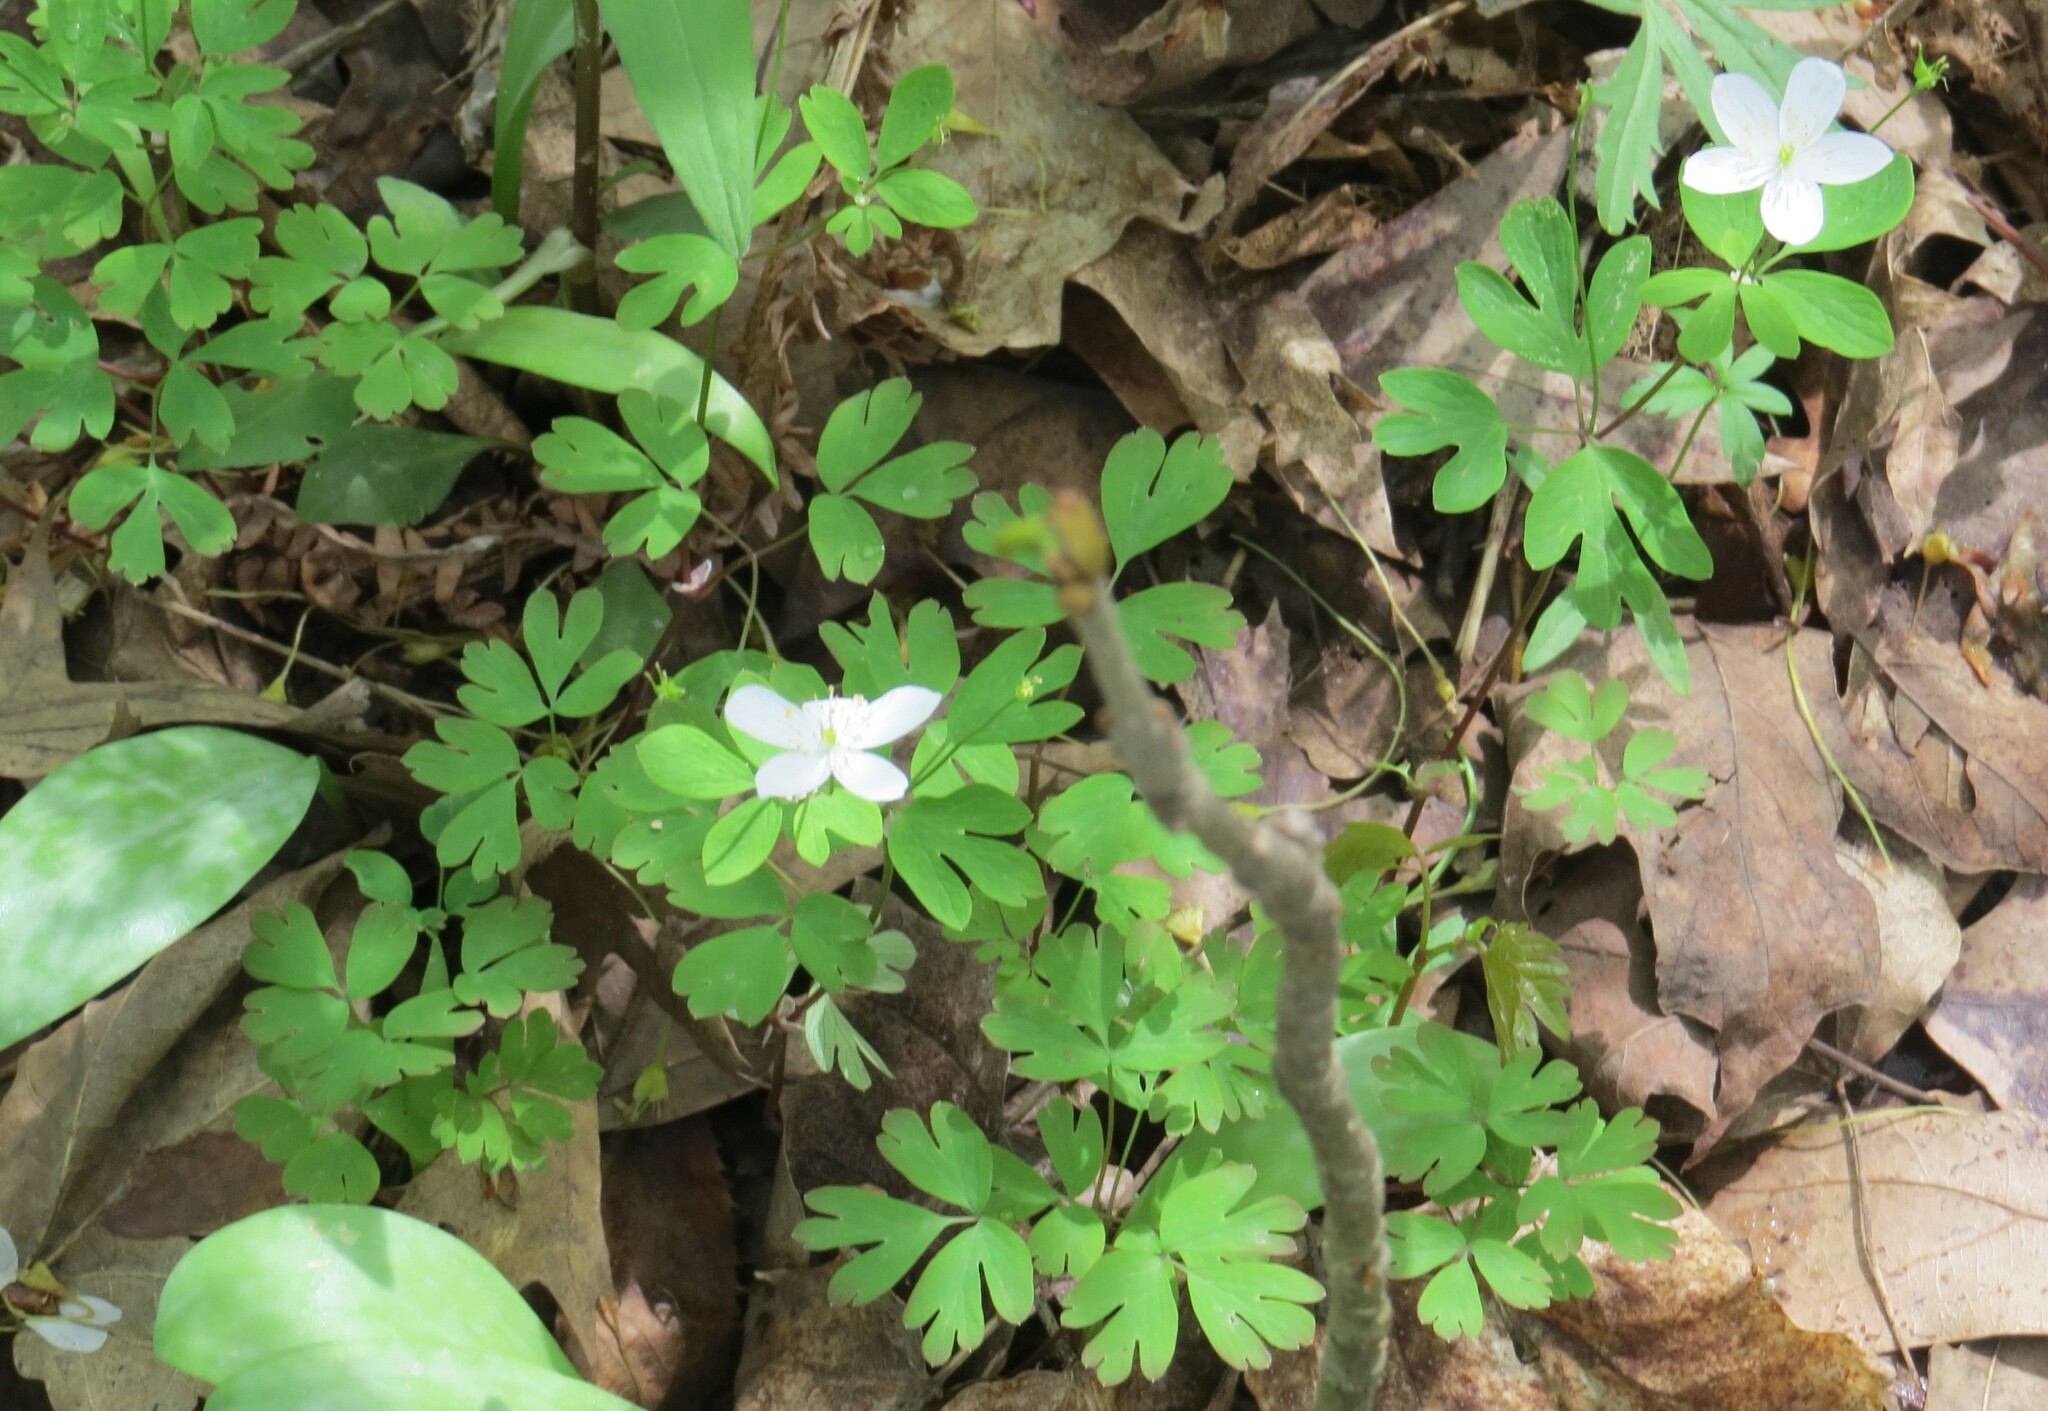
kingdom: Plantae
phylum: Tracheophyta
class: Magnoliopsida
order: Ranunculales
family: Ranunculaceae
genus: Enemion
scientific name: Enemion biternatum
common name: Eastern false rue-anemone
